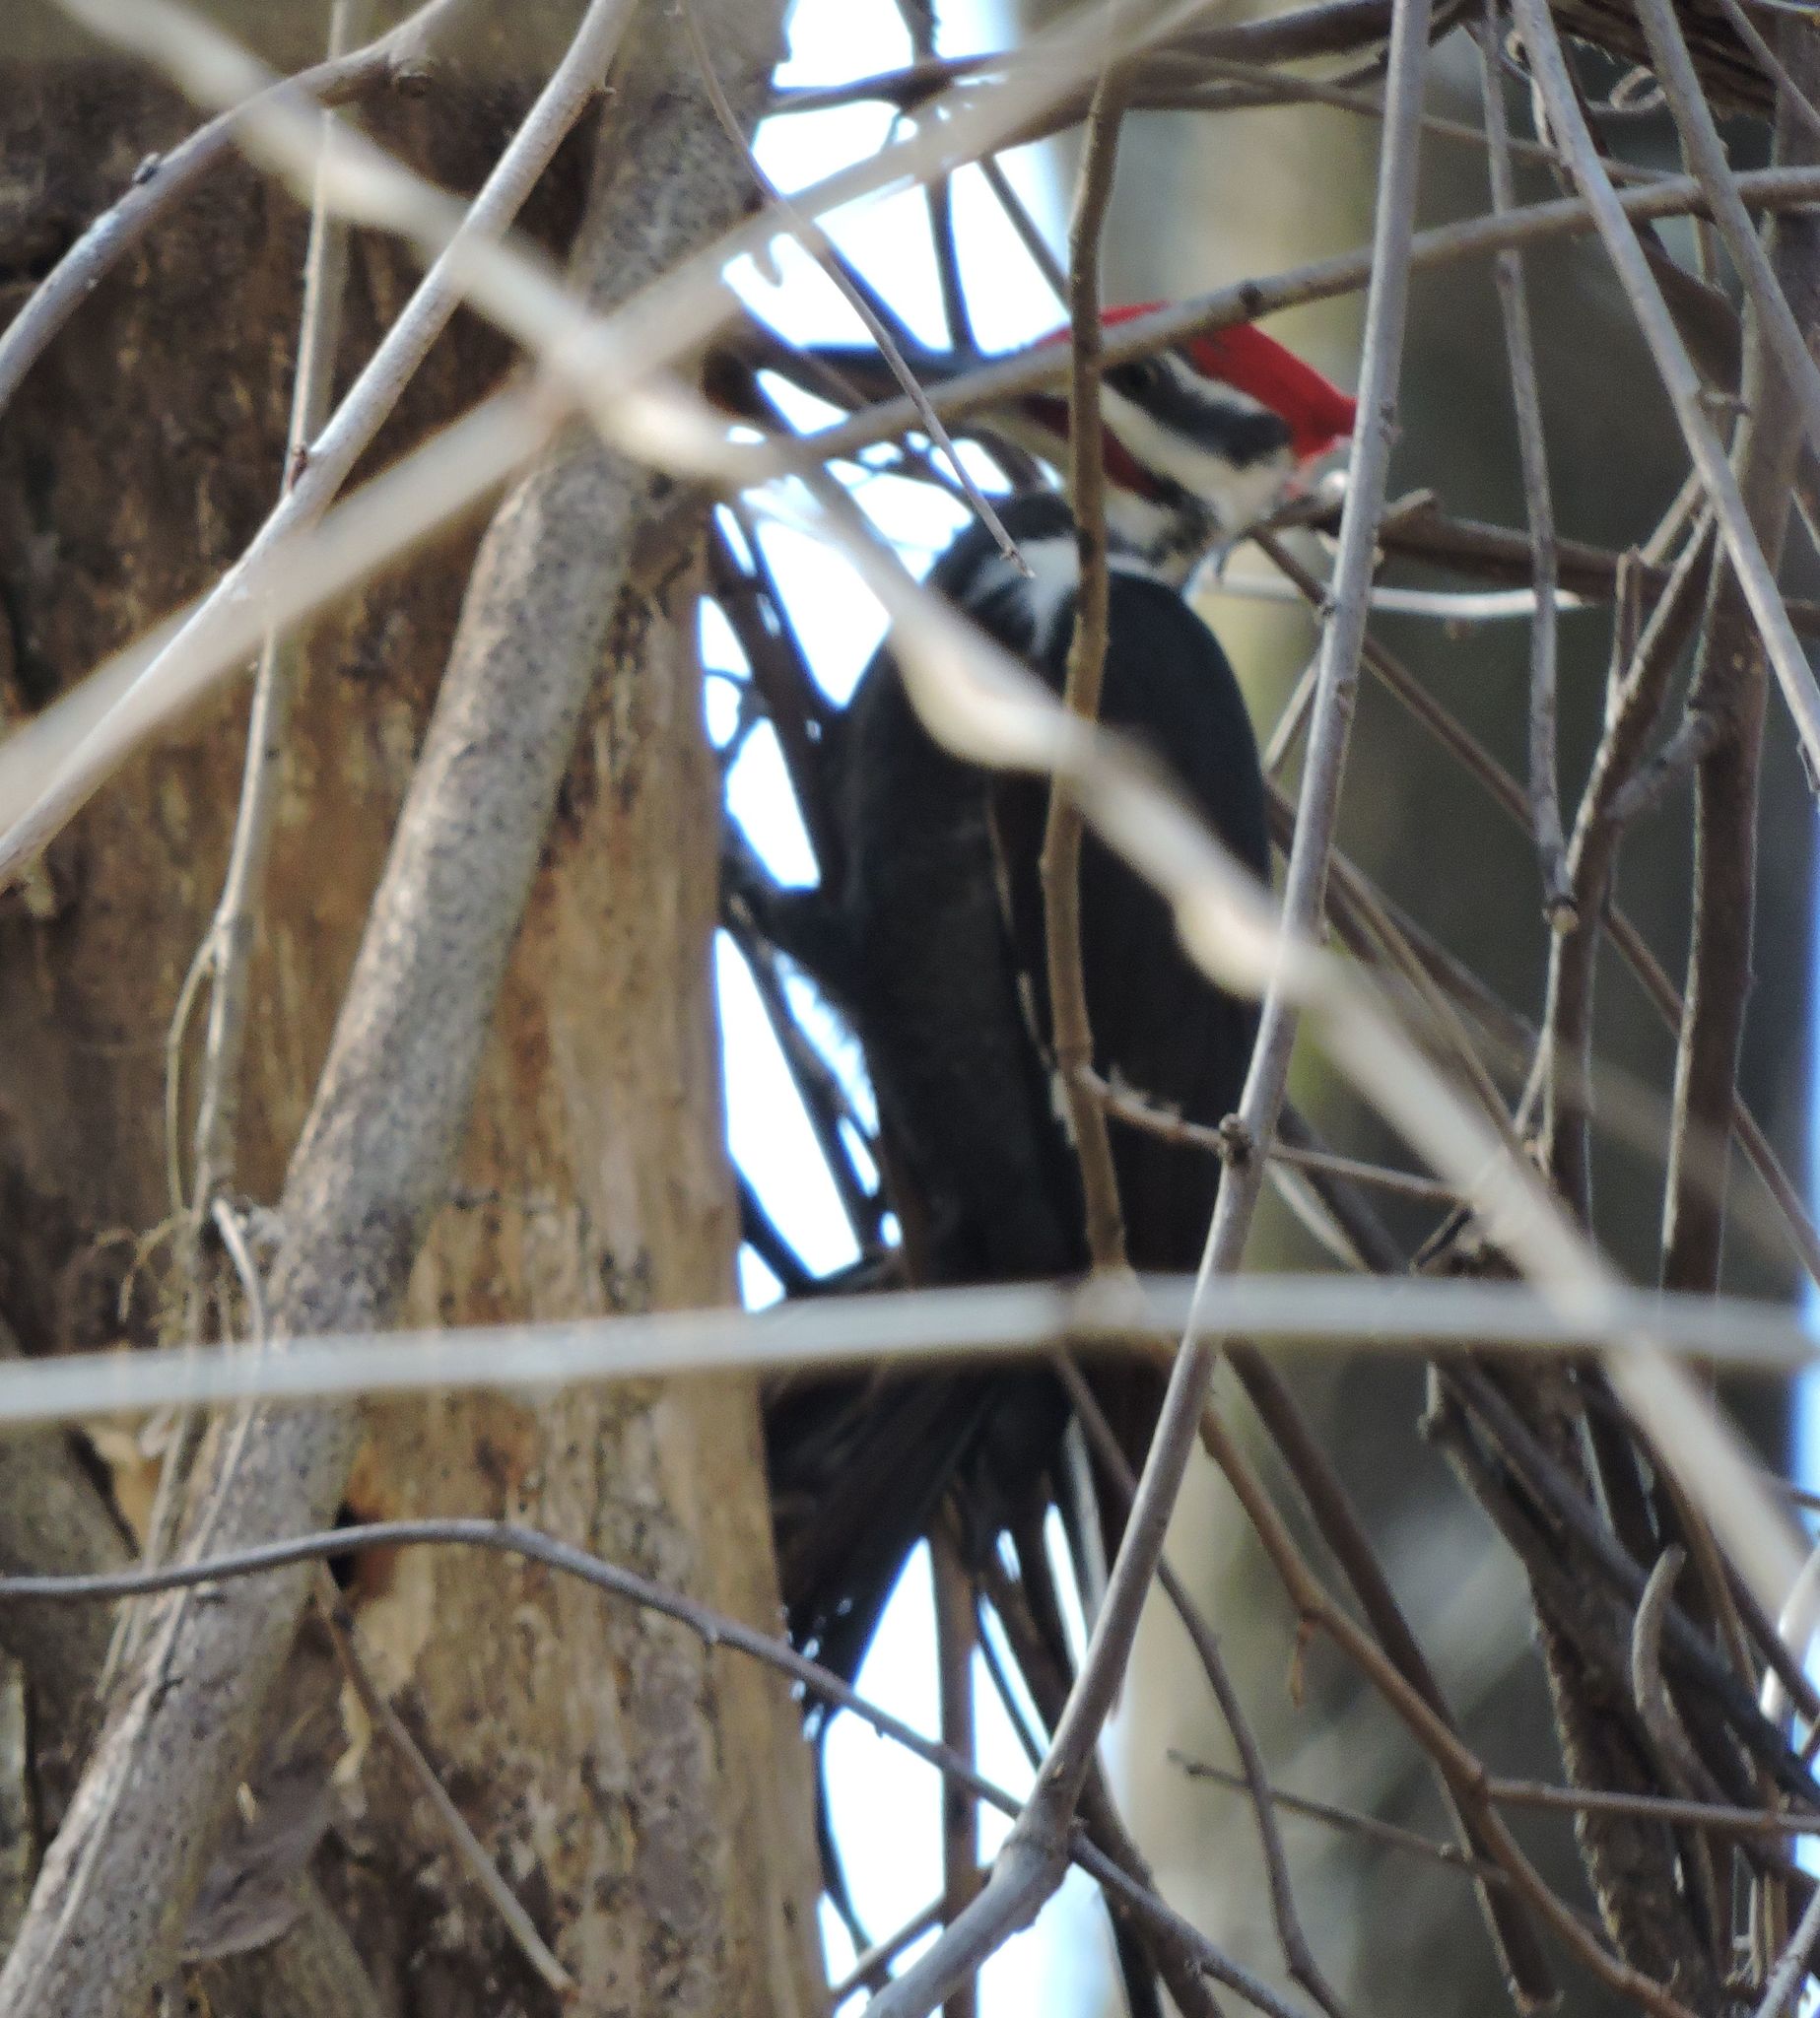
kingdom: Animalia
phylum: Chordata
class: Aves
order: Piciformes
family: Picidae
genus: Dryocopus
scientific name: Dryocopus pileatus
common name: Pileated woodpecker
